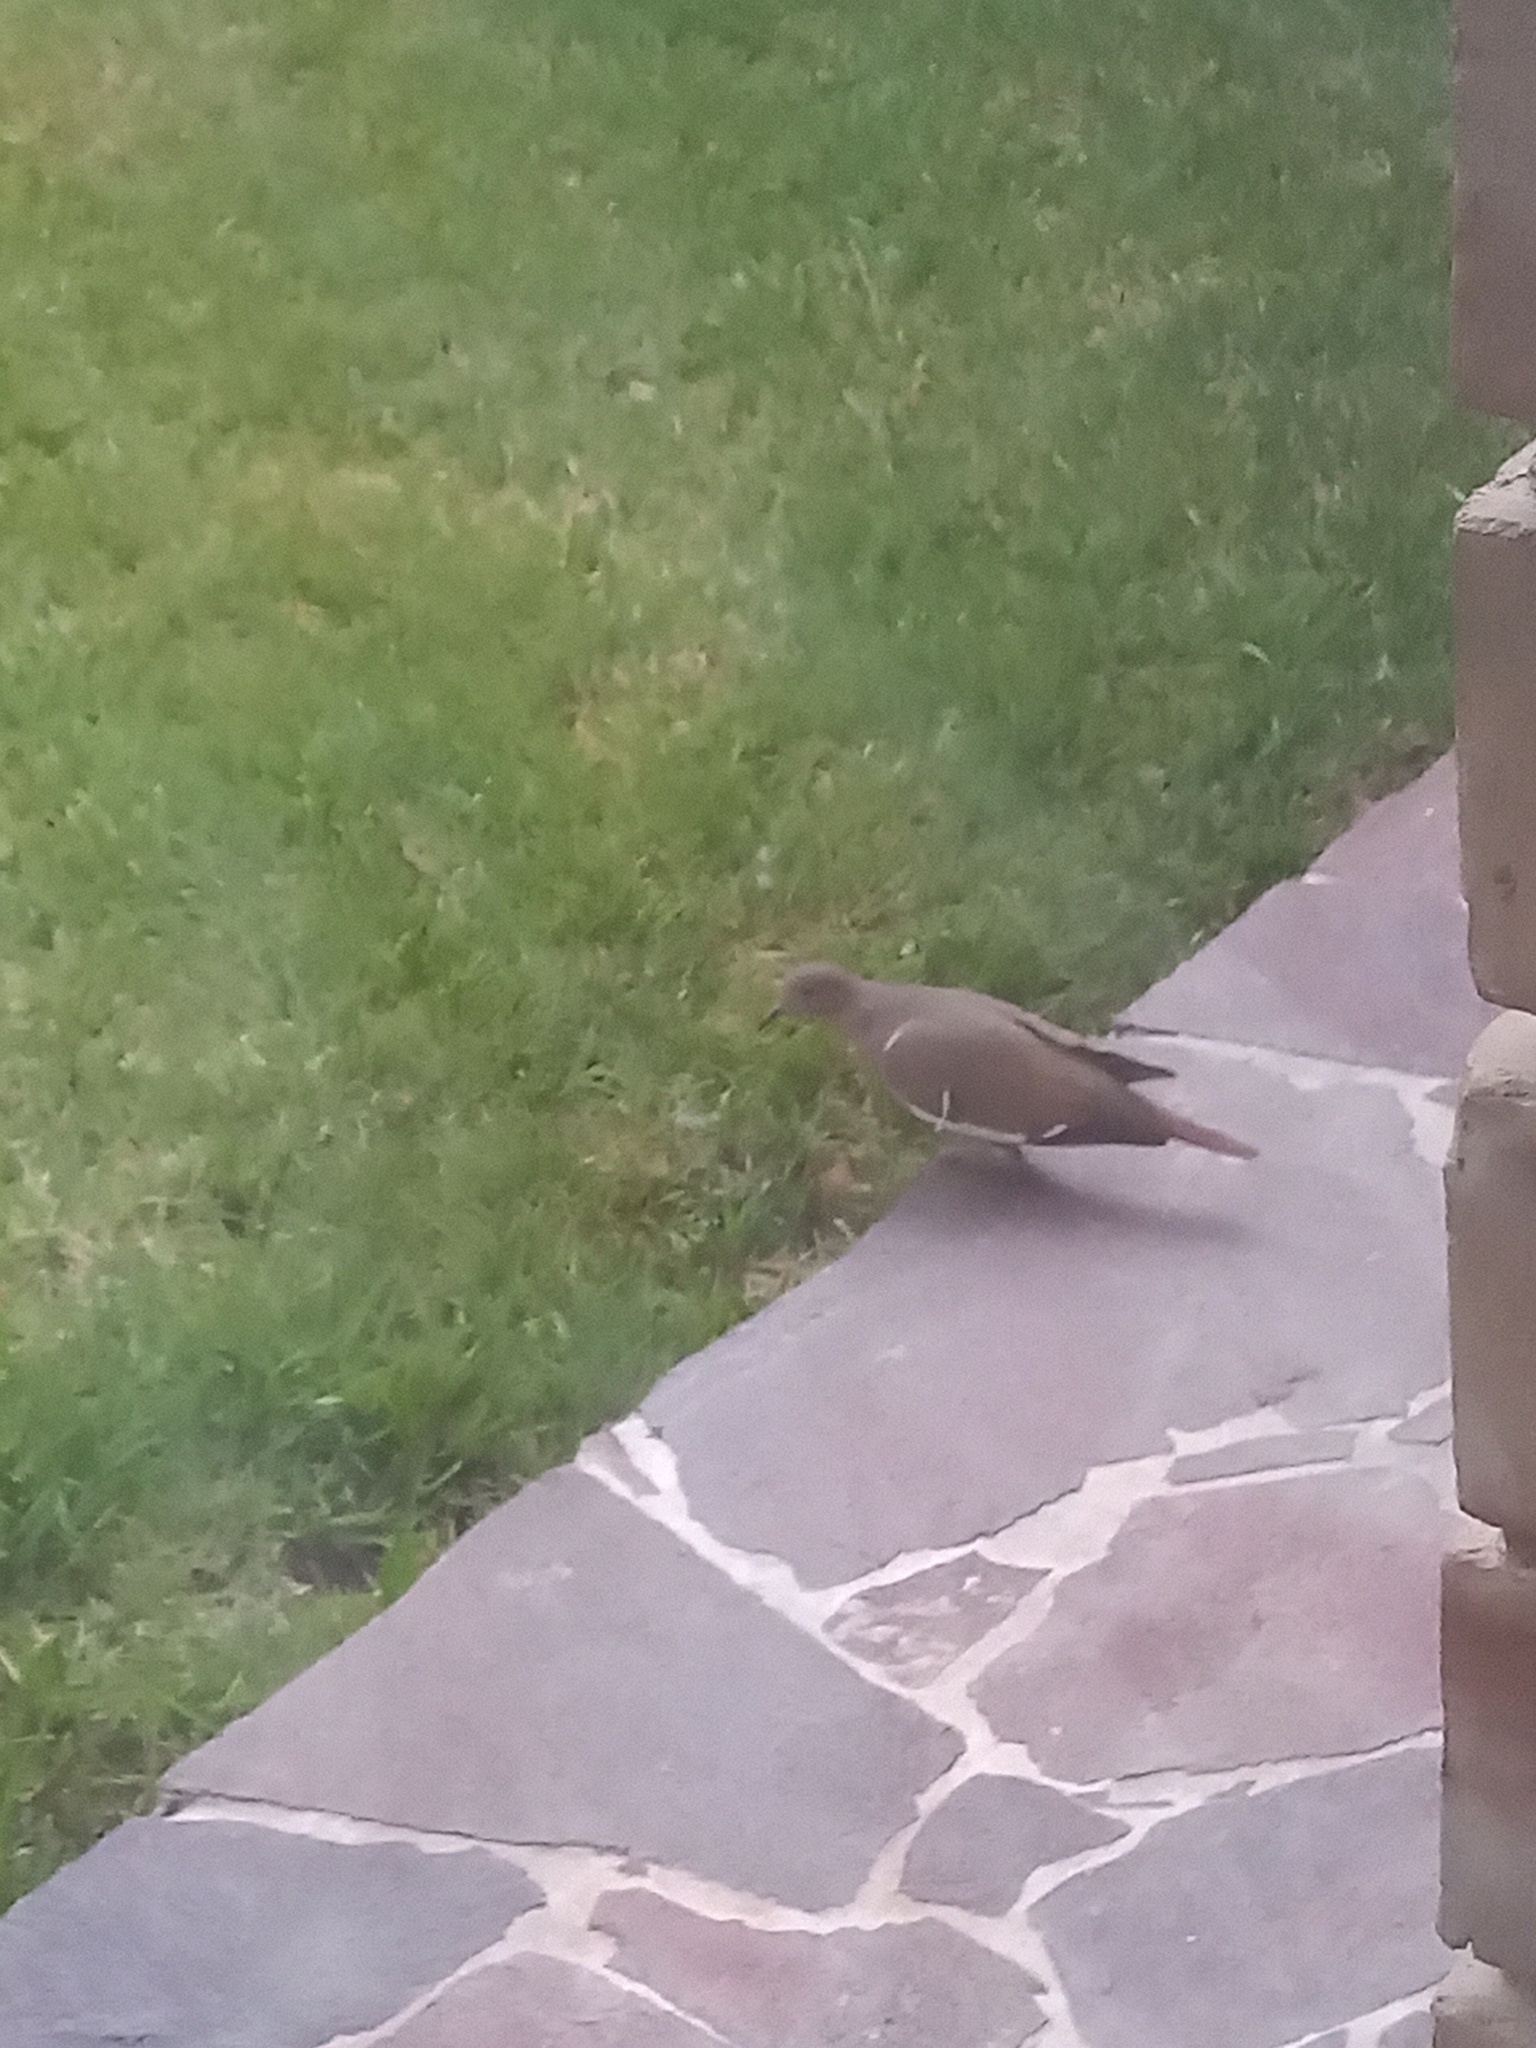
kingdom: Animalia
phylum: Chordata
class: Aves
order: Columbiformes
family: Columbidae
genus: Zenaida
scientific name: Zenaida asiatica
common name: White-winged dove
